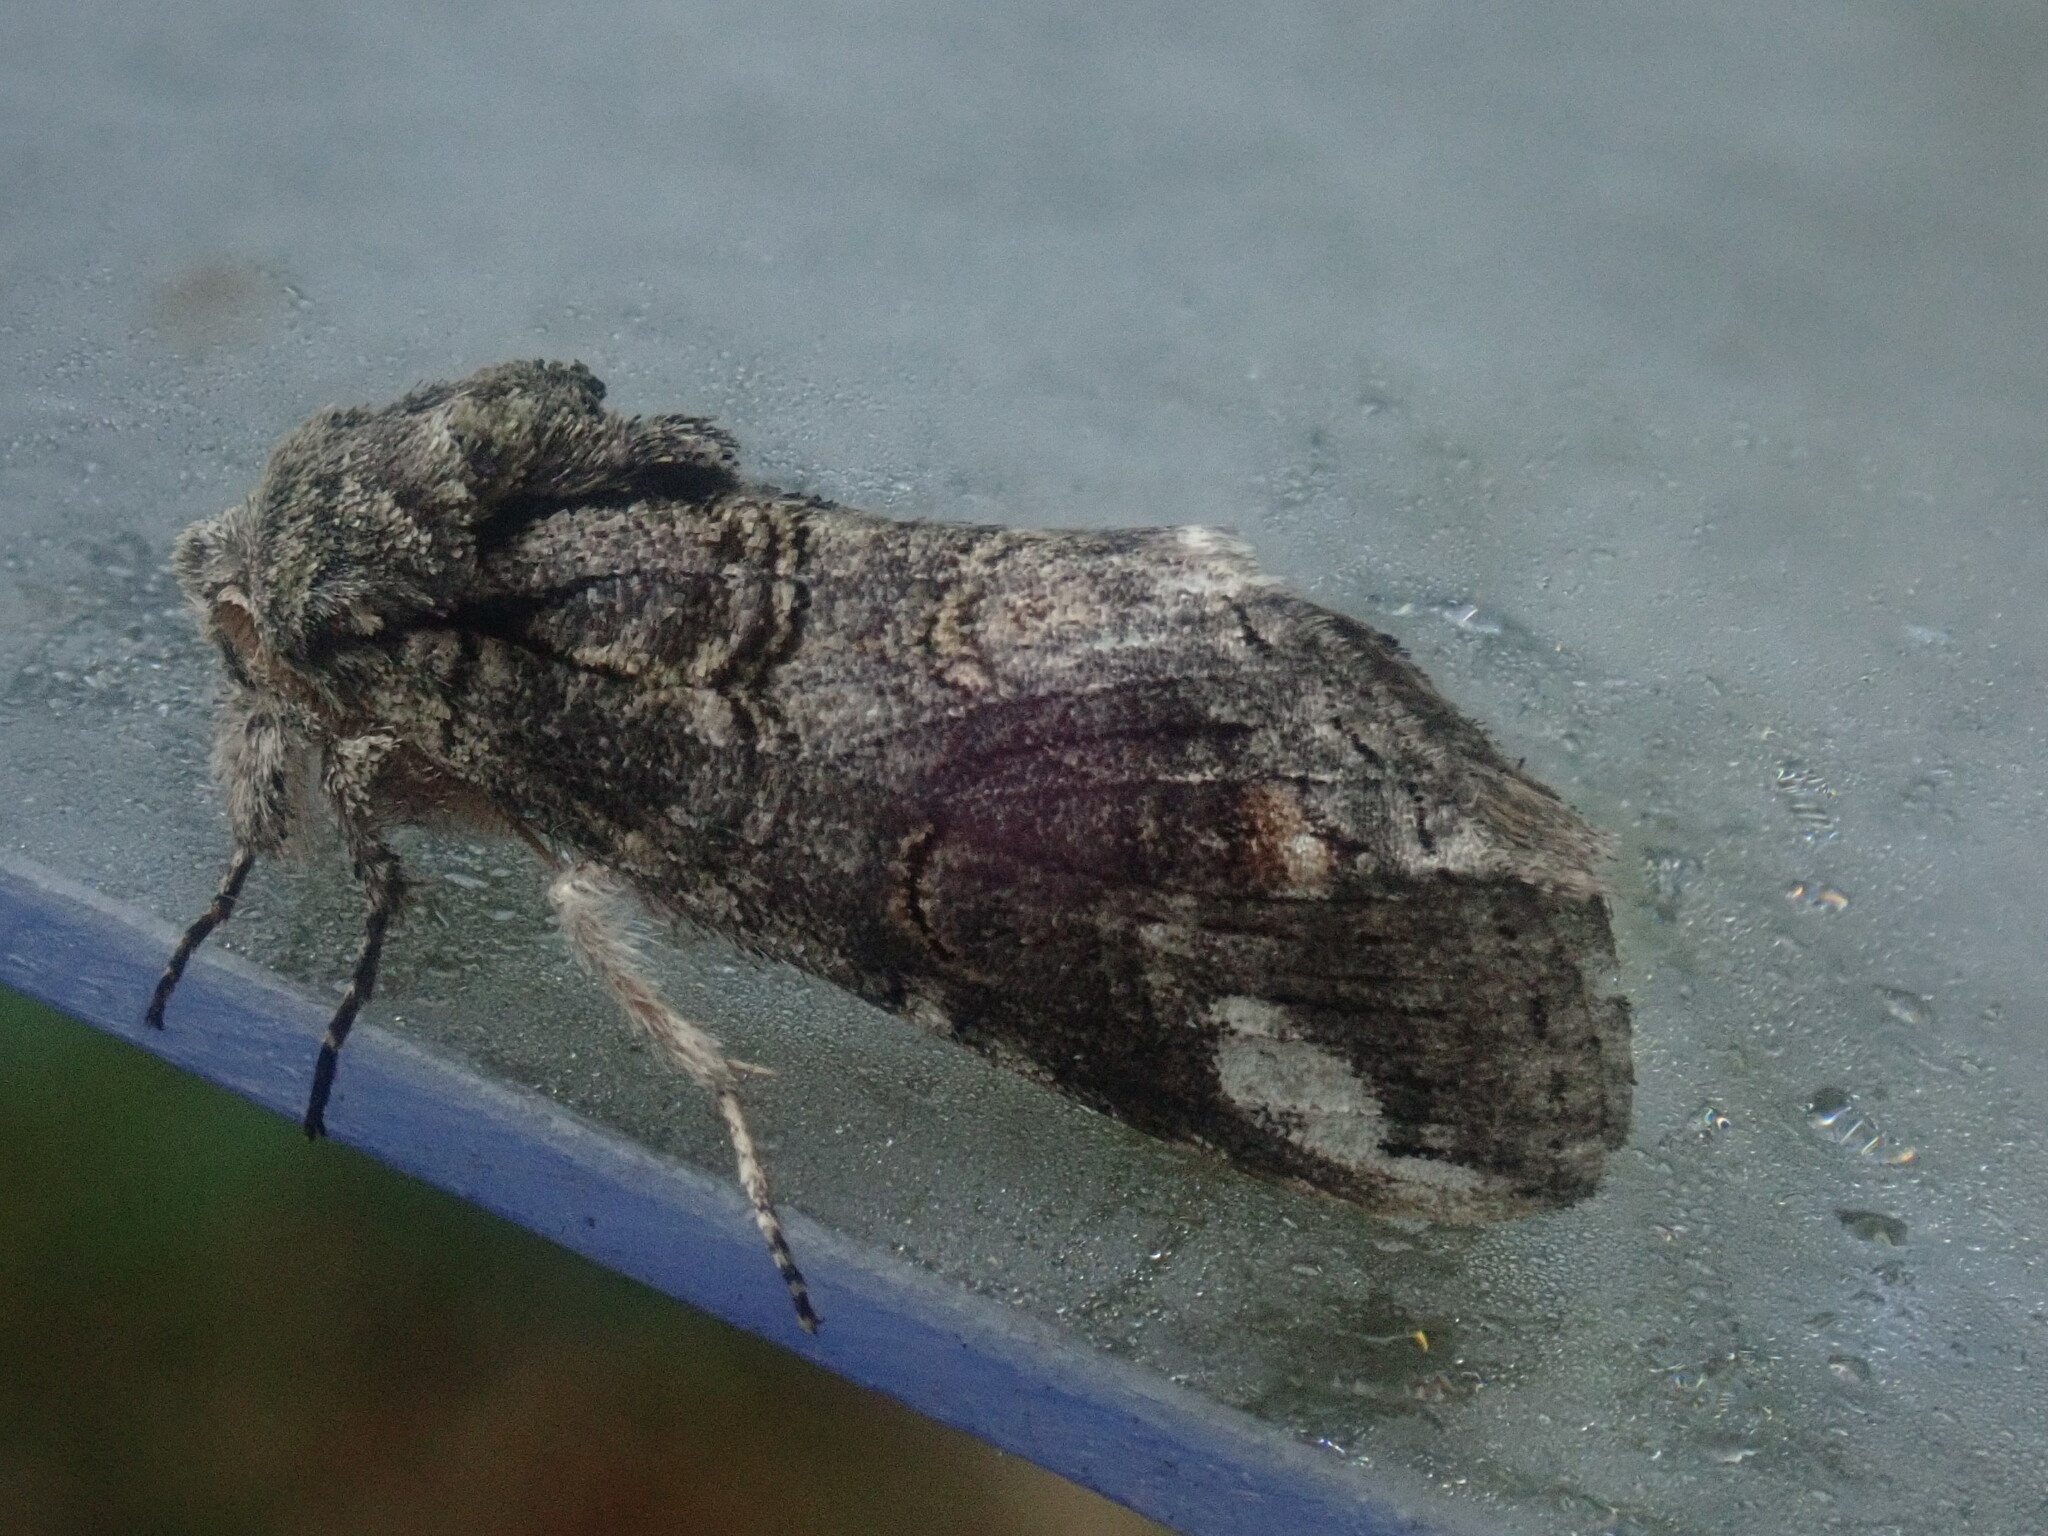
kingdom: Animalia
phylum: Arthropoda
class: Insecta
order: Lepidoptera
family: Notodontidae
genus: Heterocampa
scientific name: Heterocampa obliqua
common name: Oblique heterocampa
